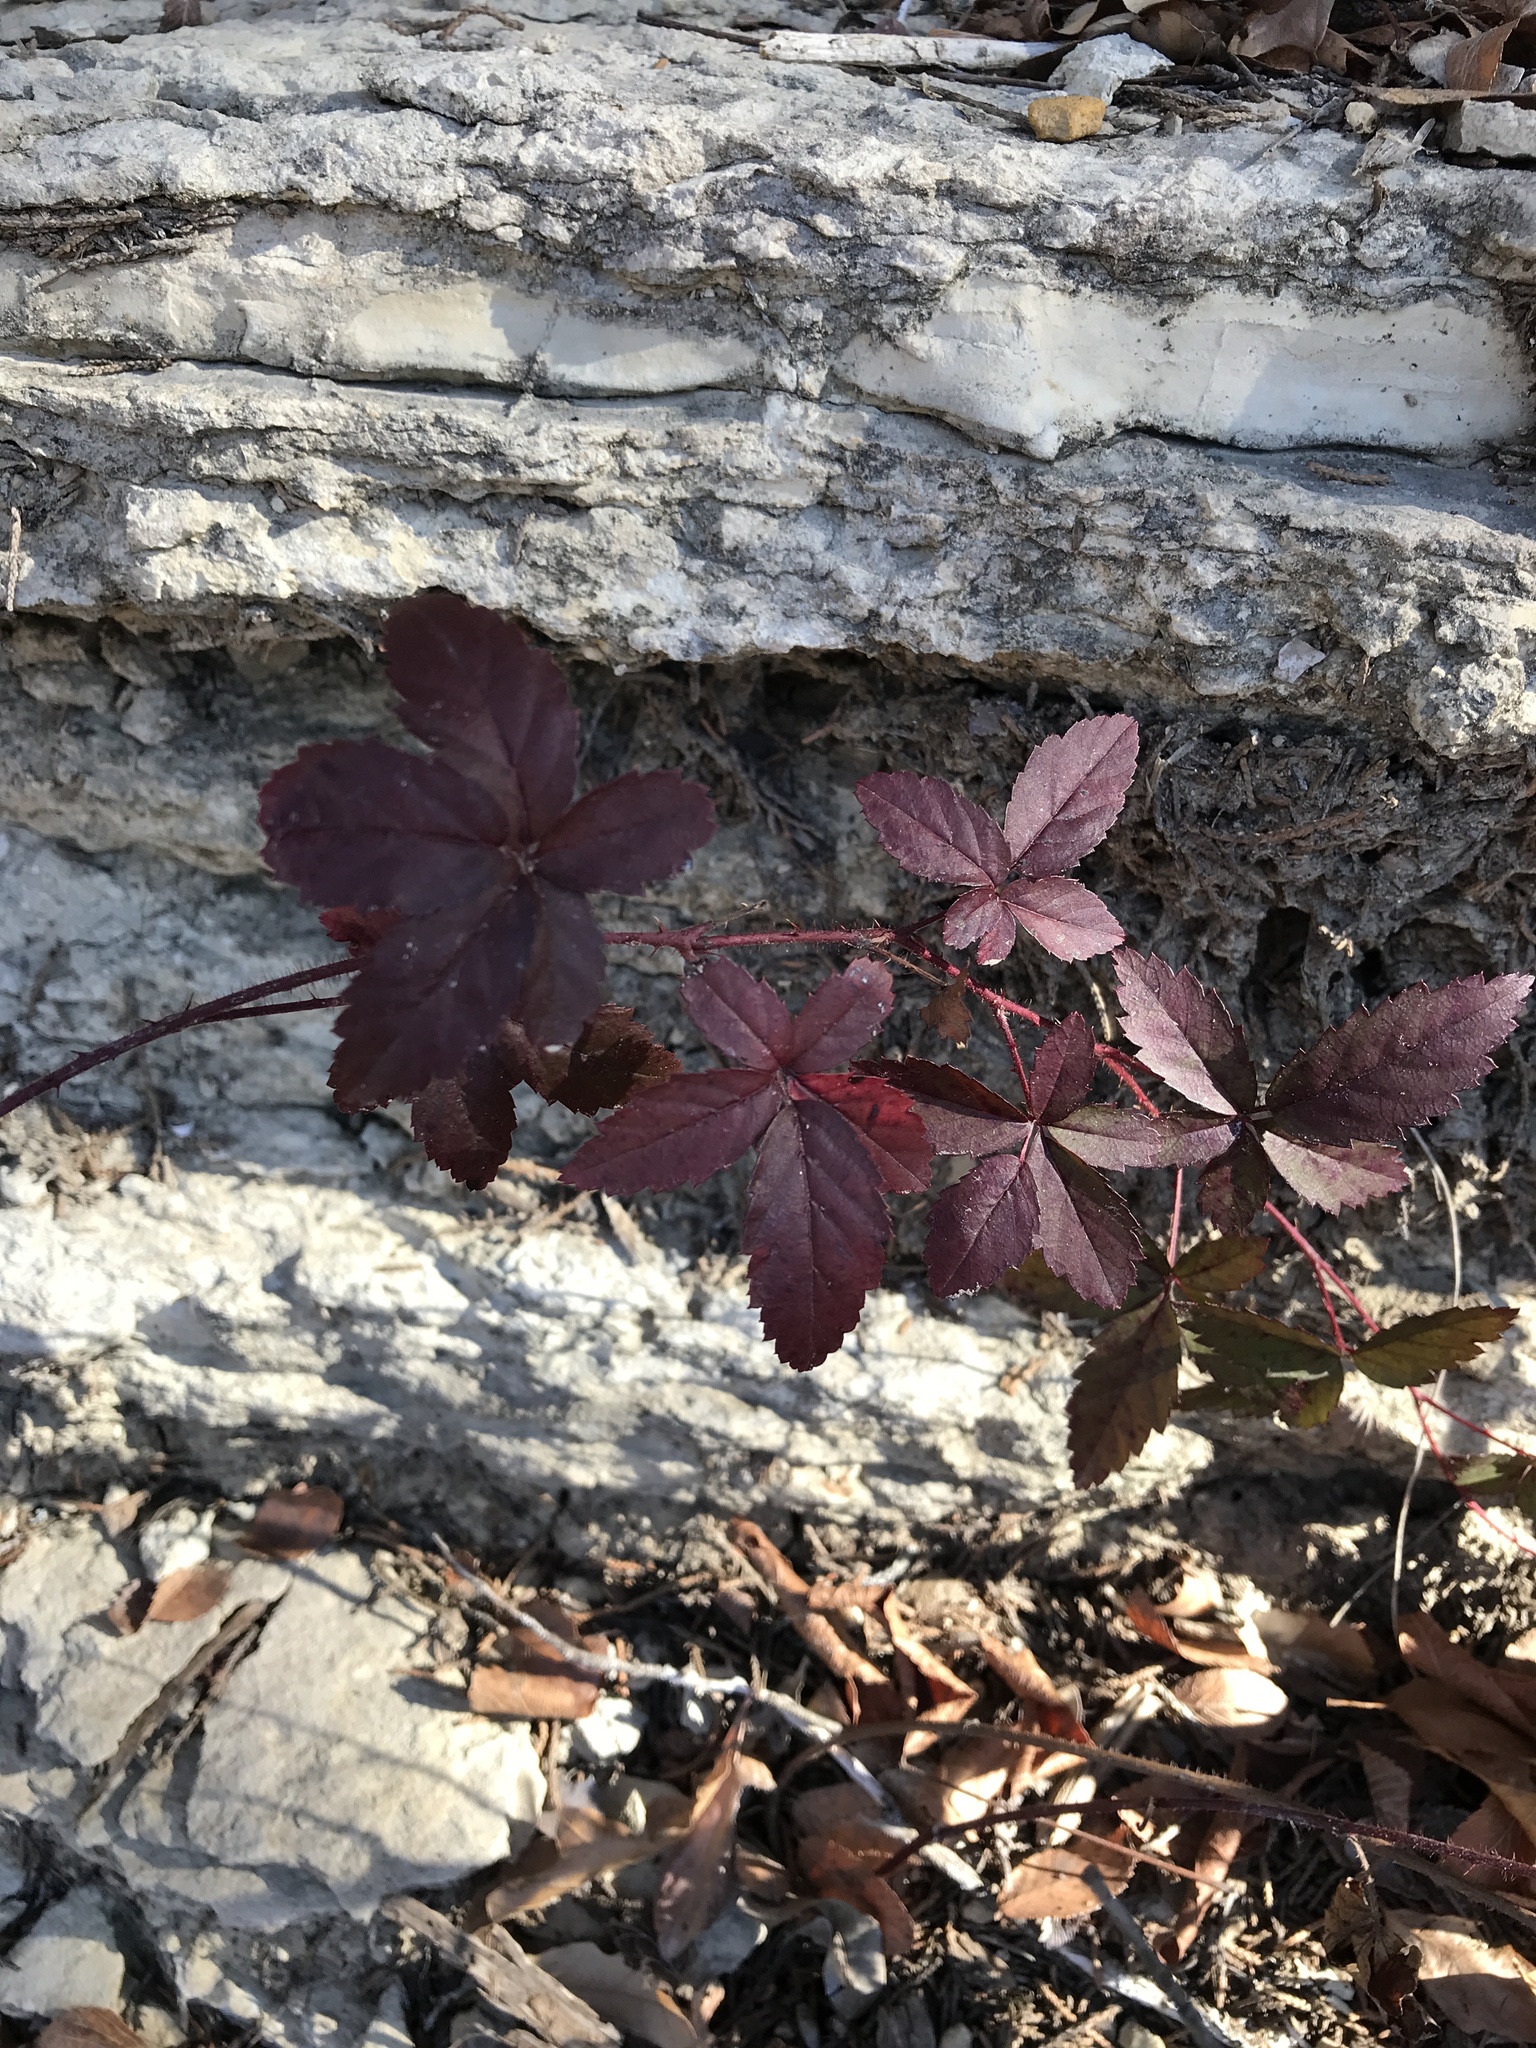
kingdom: Plantae
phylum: Tracheophyta
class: Magnoliopsida
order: Rosales
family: Rosaceae
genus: Rubus
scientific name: Rubus trivialis
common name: Southern dewberry
